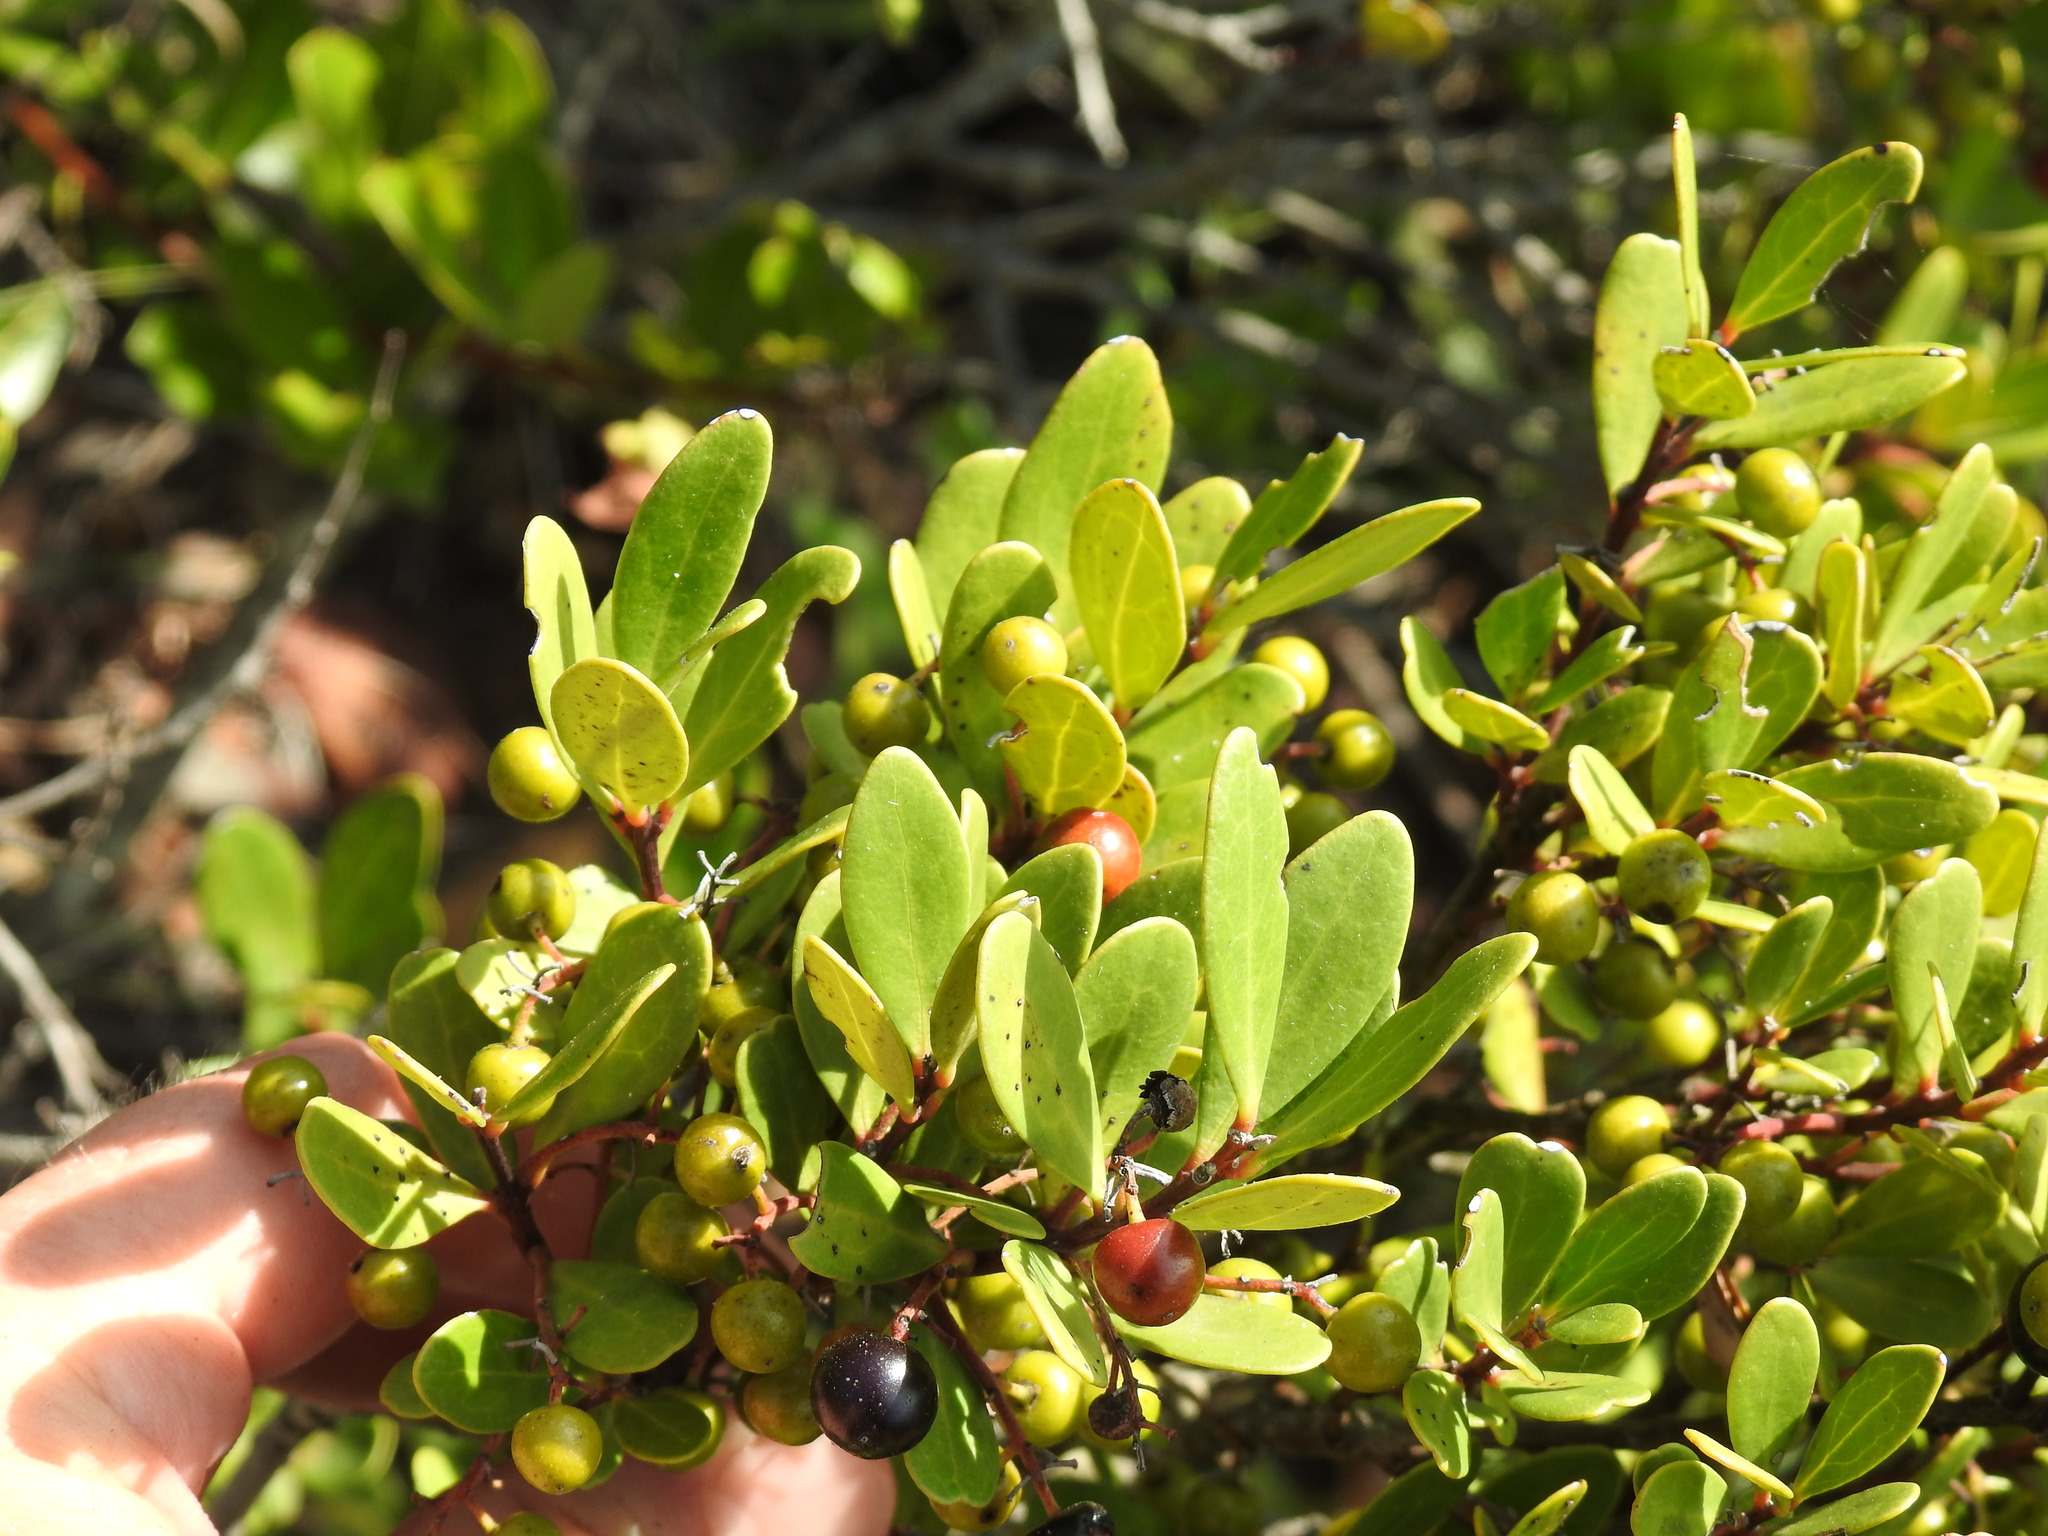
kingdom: Plantae
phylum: Tracheophyta
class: Magnoliopsida
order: Ericales
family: Ebenaceae
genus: Euclea
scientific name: Euclea racemosa
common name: Dune guarri
